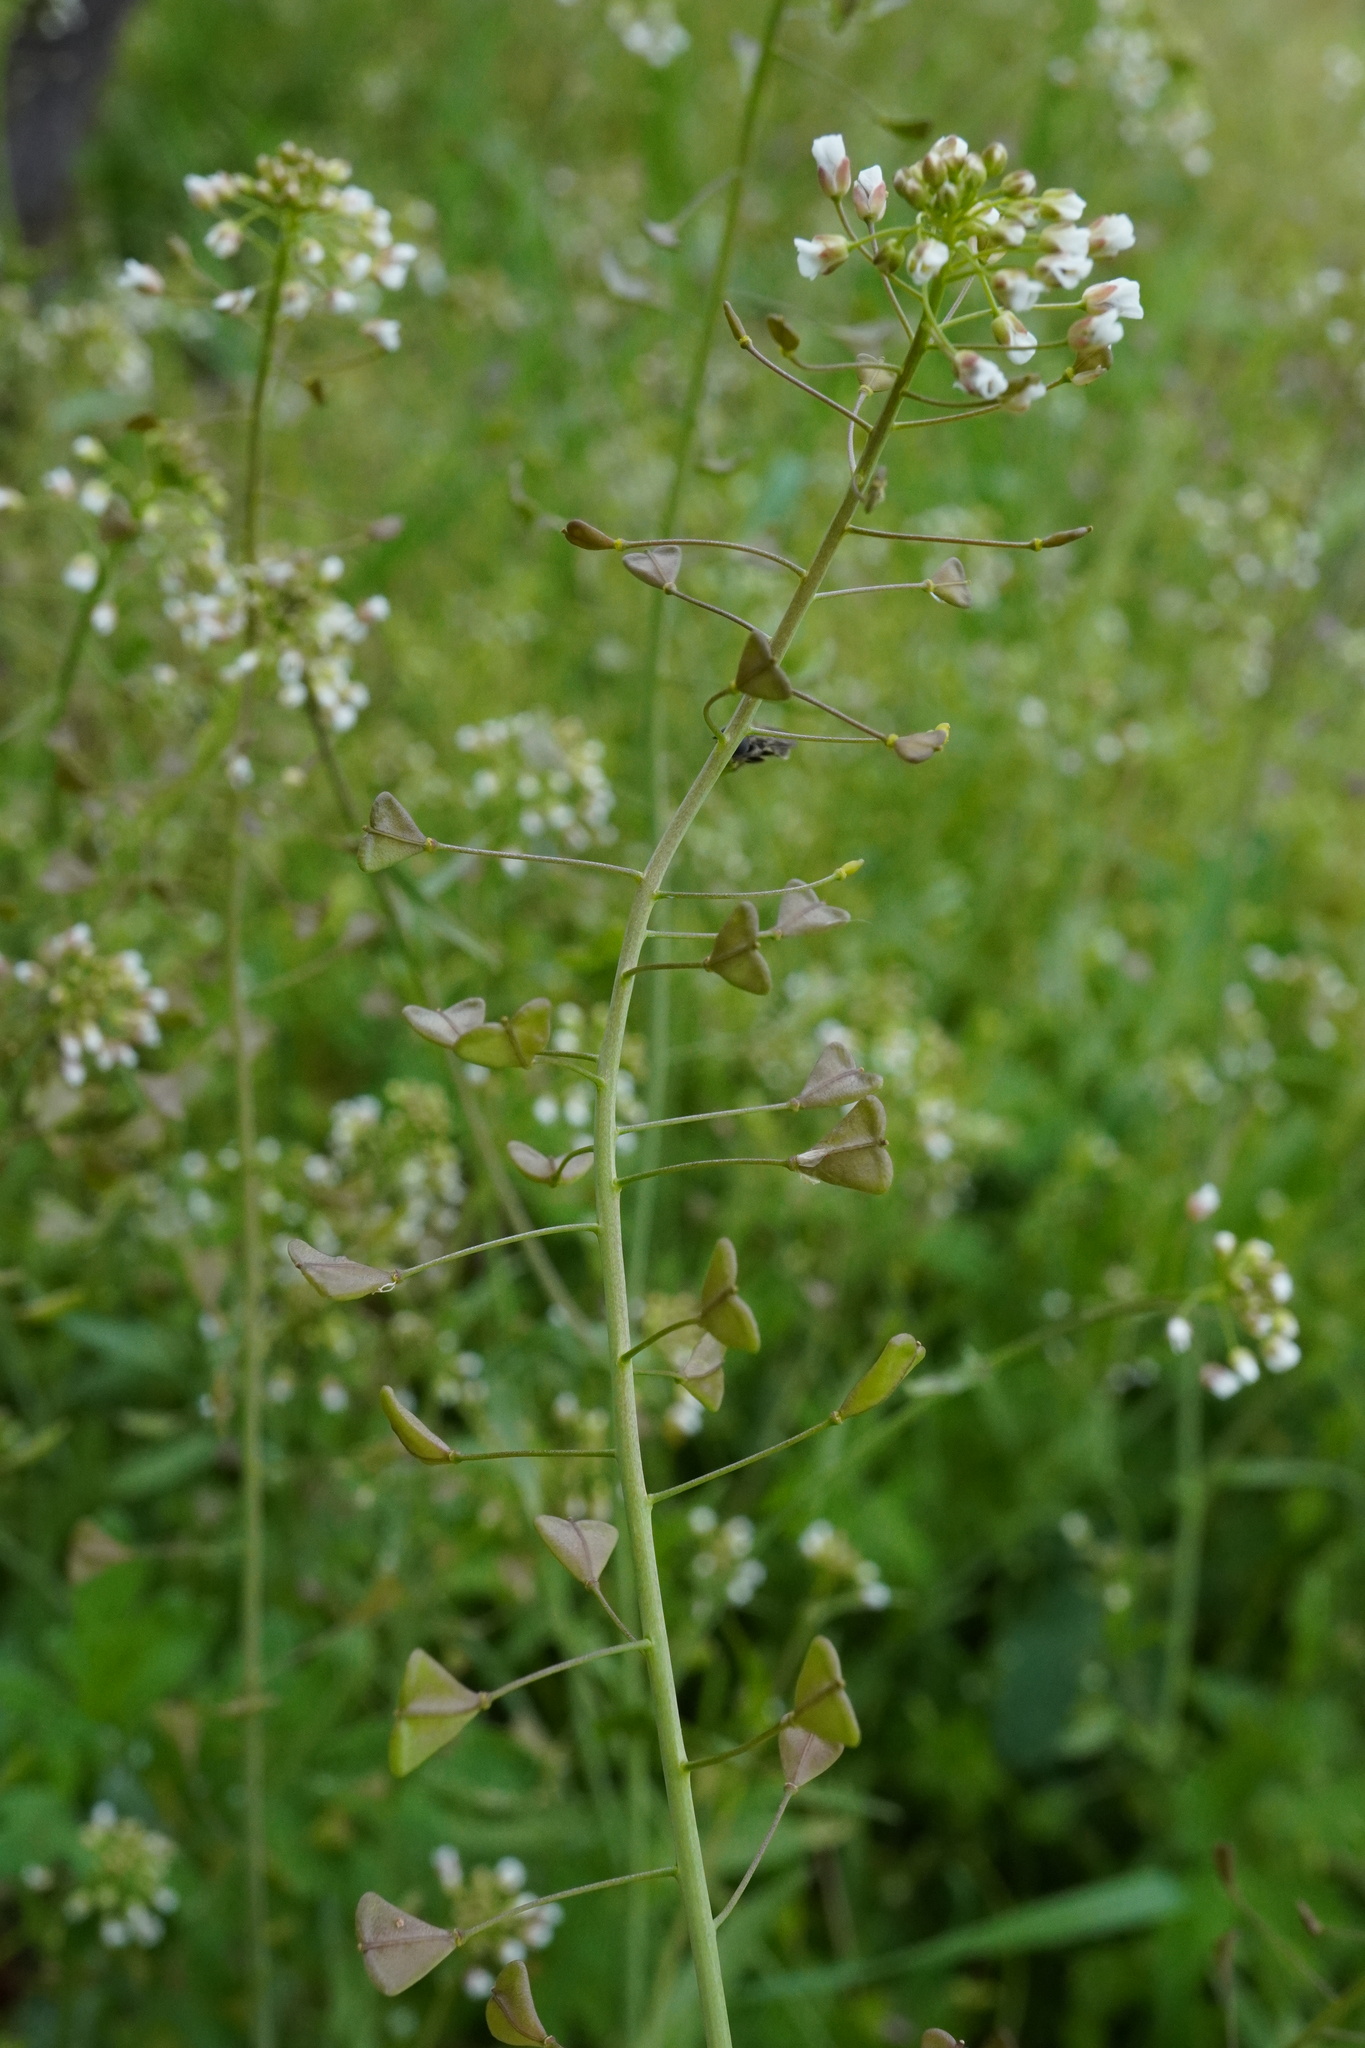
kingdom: Plantae
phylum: Tracheophyta
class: Magnoliopsida
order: Brassicales
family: Brassicaceae
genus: Capsella
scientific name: Capsella bursa-pastoris
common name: Shepherd's purse
